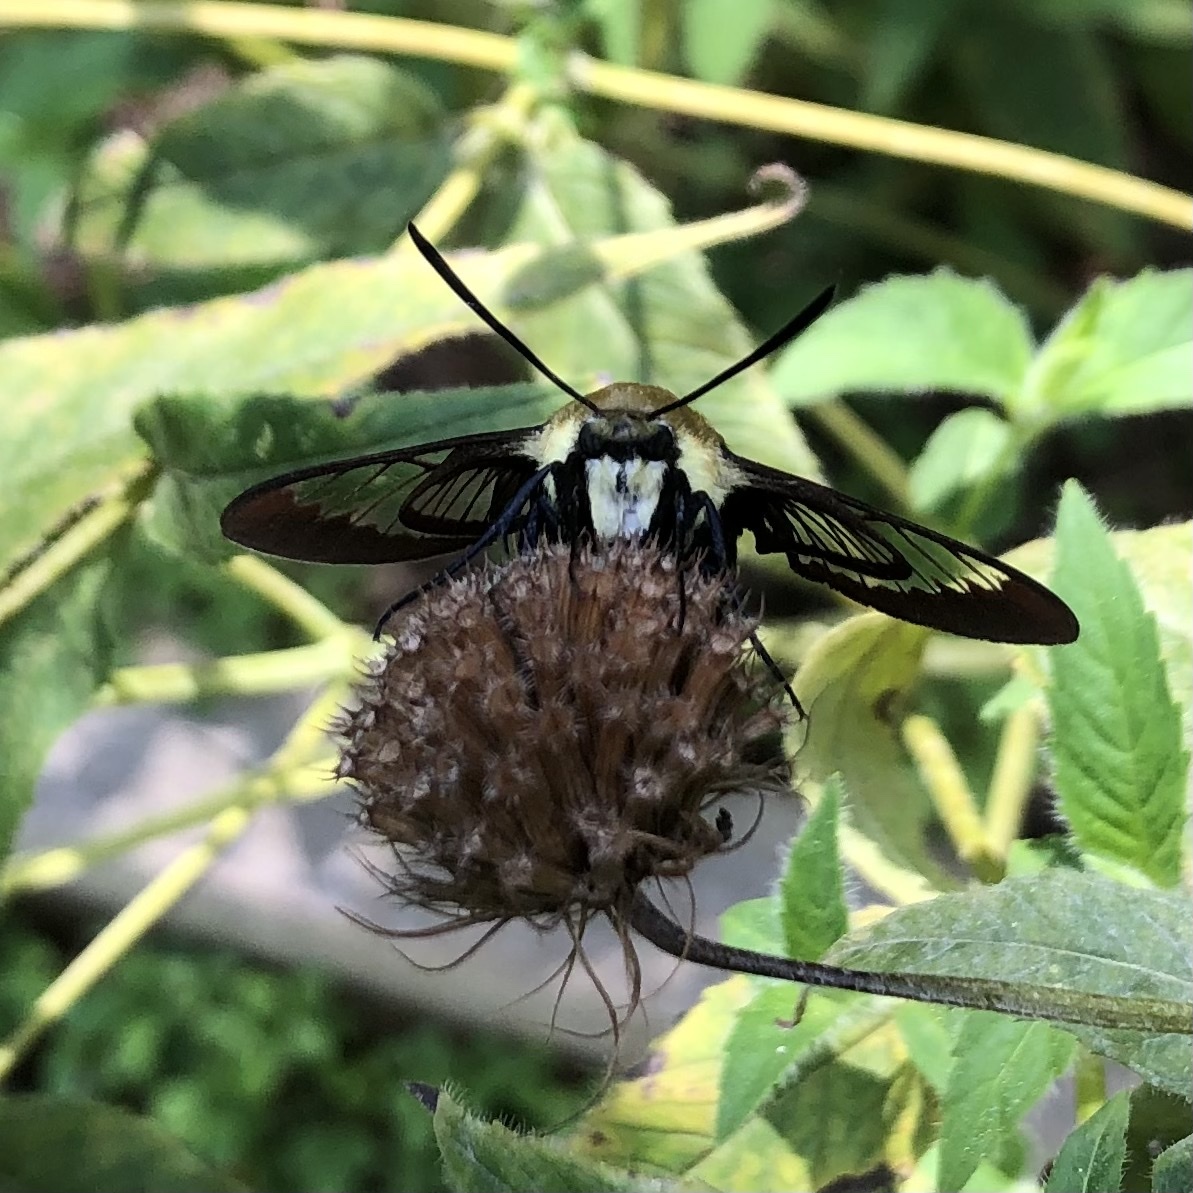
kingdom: Animalia
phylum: Arthropoda
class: Insecta
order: Lepidoptera
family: Sphingidae
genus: Hemaris
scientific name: Hemaris diffinis
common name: Bumblebee moth
